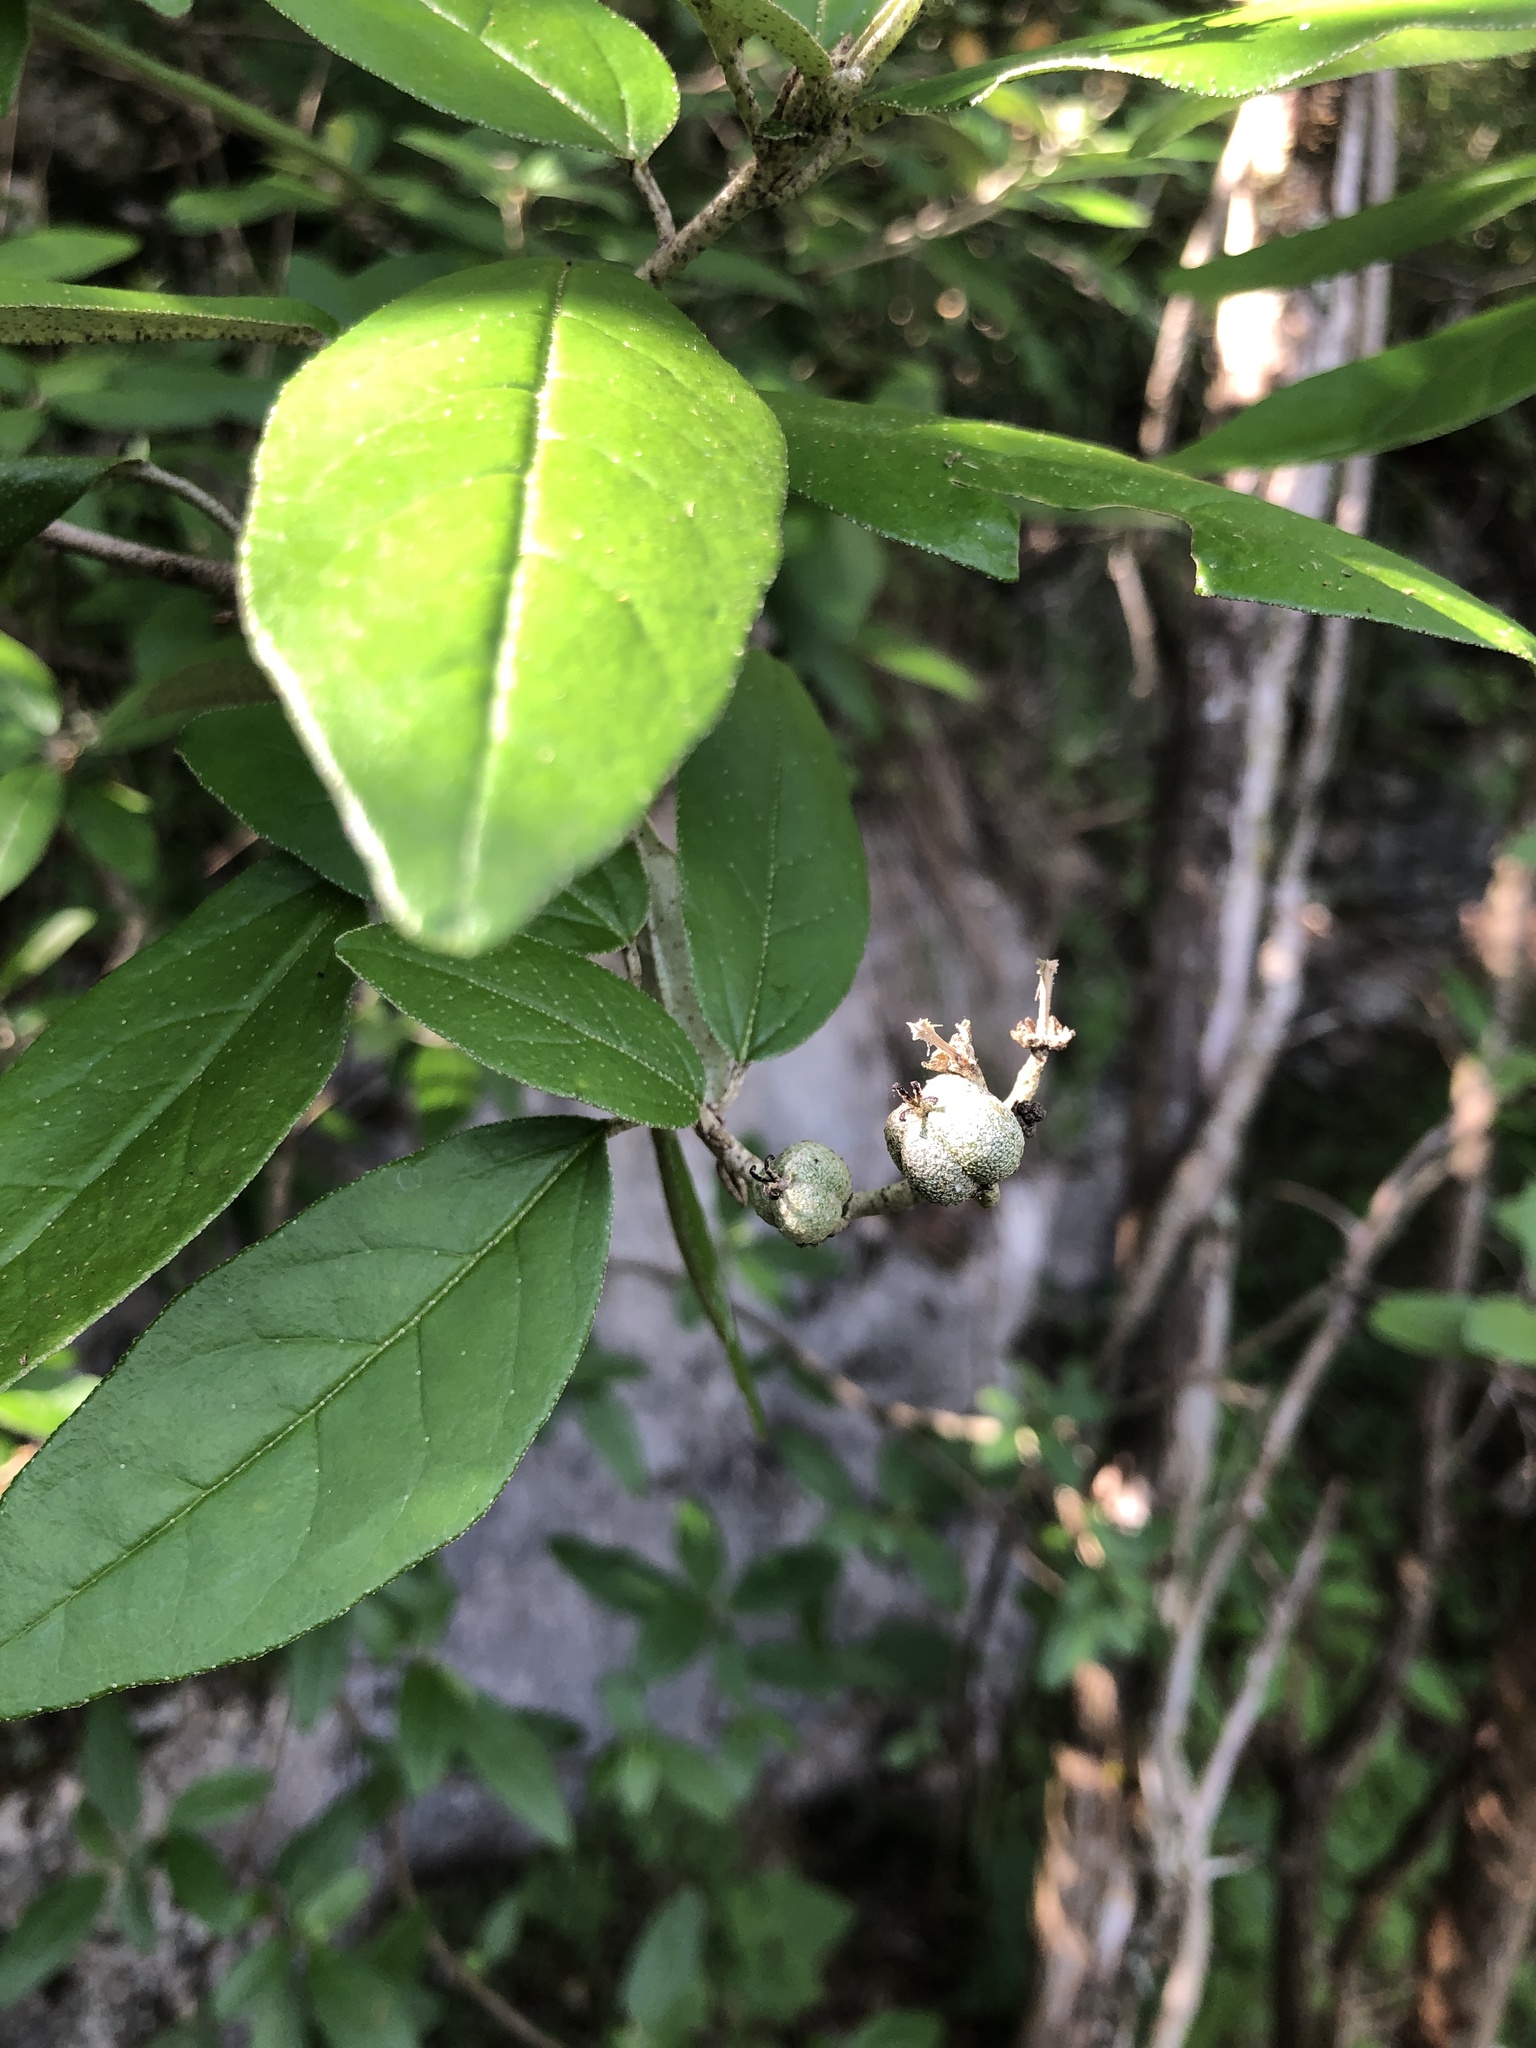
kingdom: Plantae
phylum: Tracheophyta
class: Magnoliopsida
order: Malpighiales
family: Euphorbiaceae
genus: Croton
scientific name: Croton alabamensis
